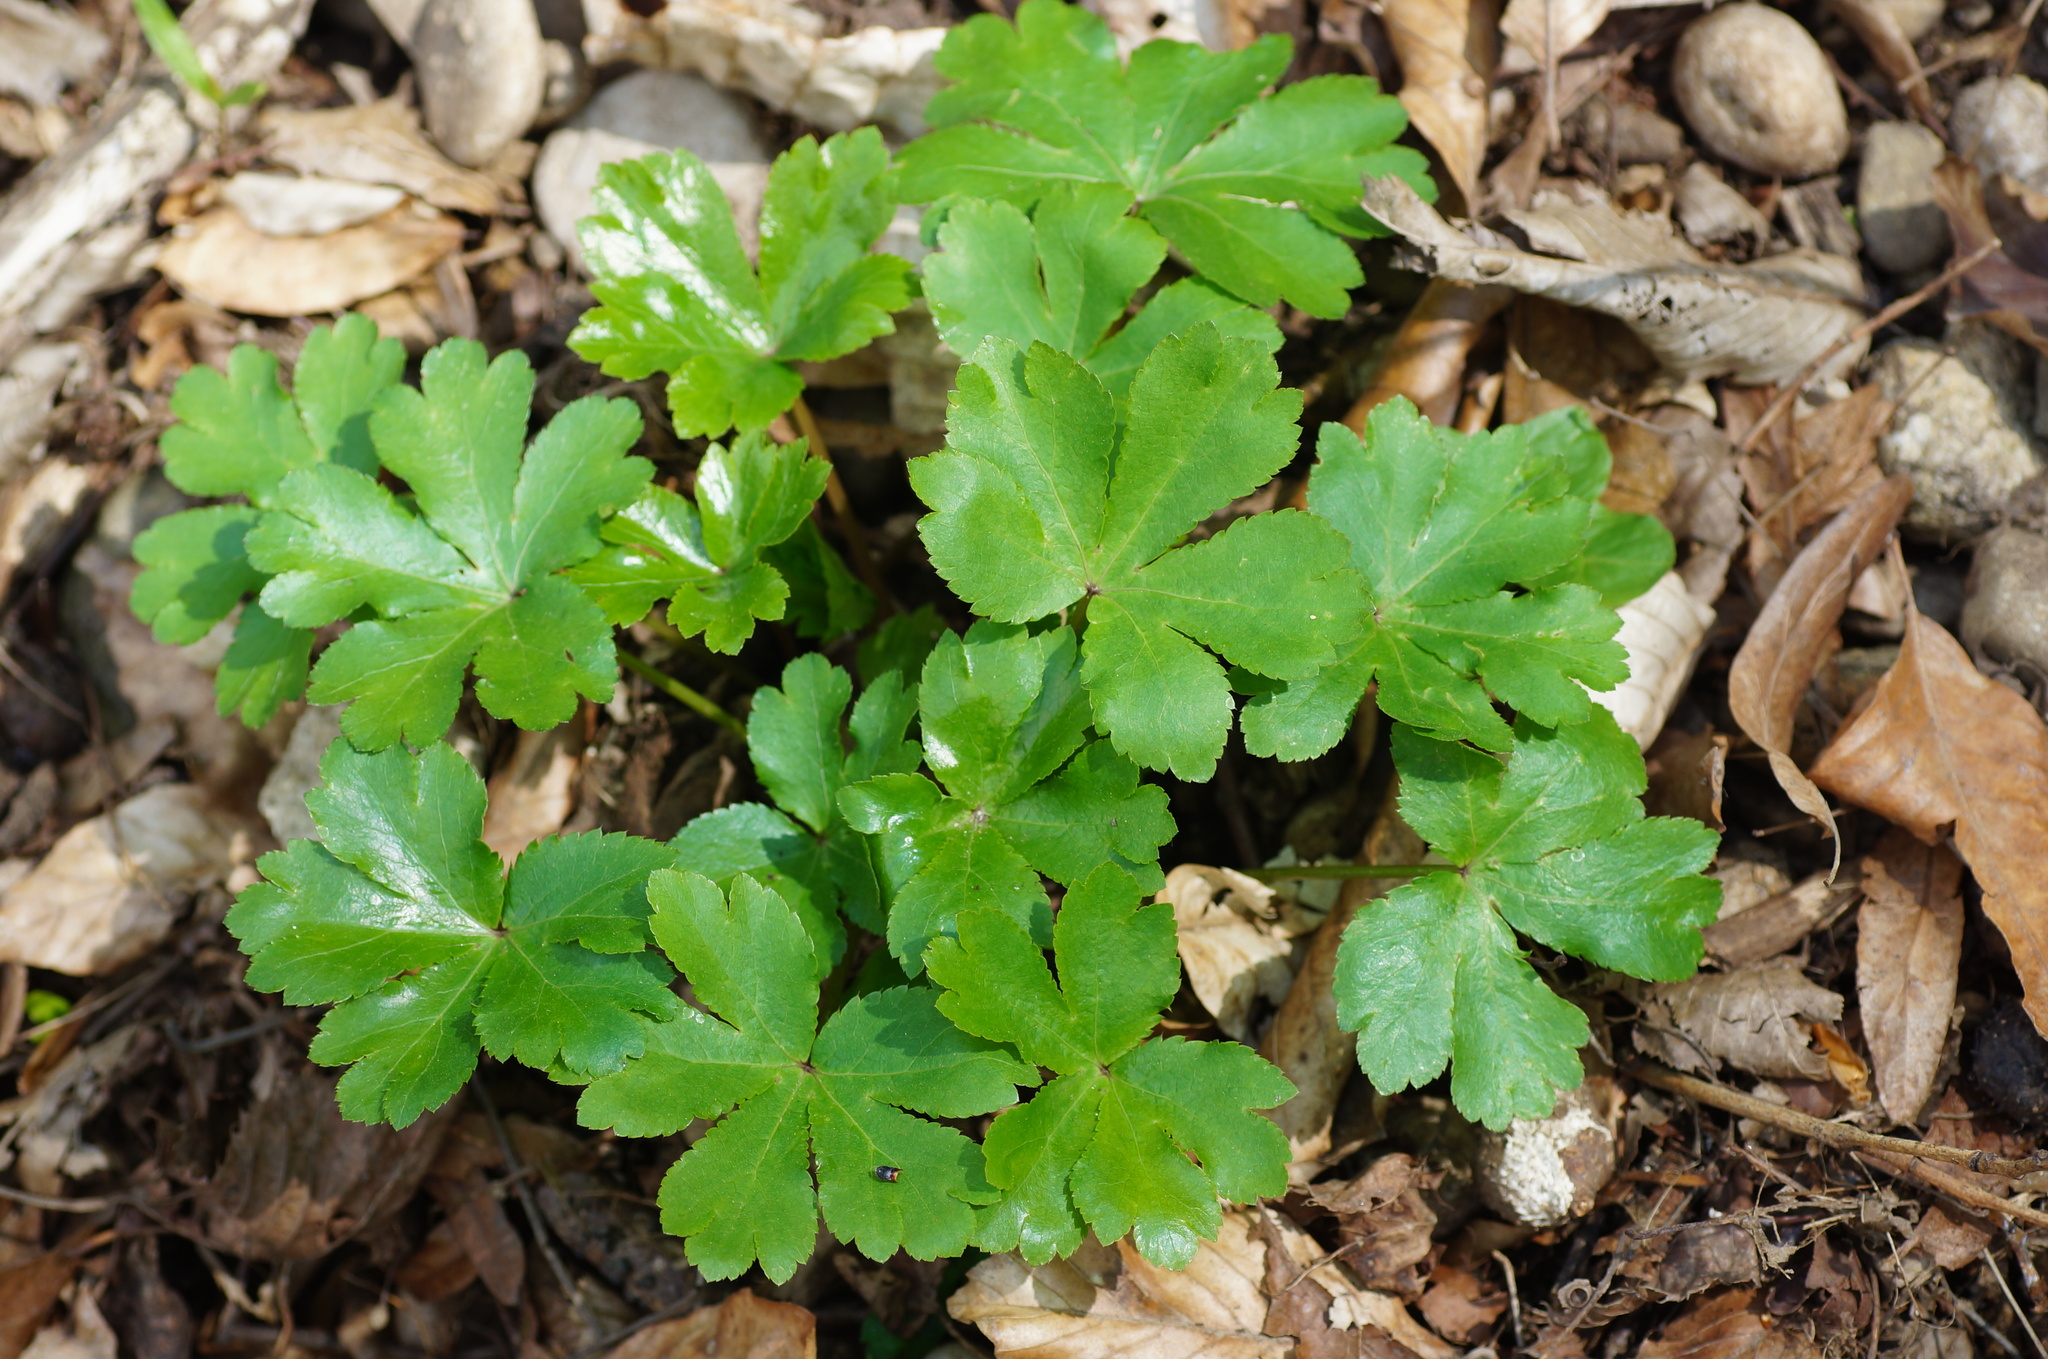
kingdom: Plantae
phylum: Tracheophyta
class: Magnoliopsida
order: Apiales
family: Apiaceae
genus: Sanicula
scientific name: Sanicula europaea
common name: Sanicle
